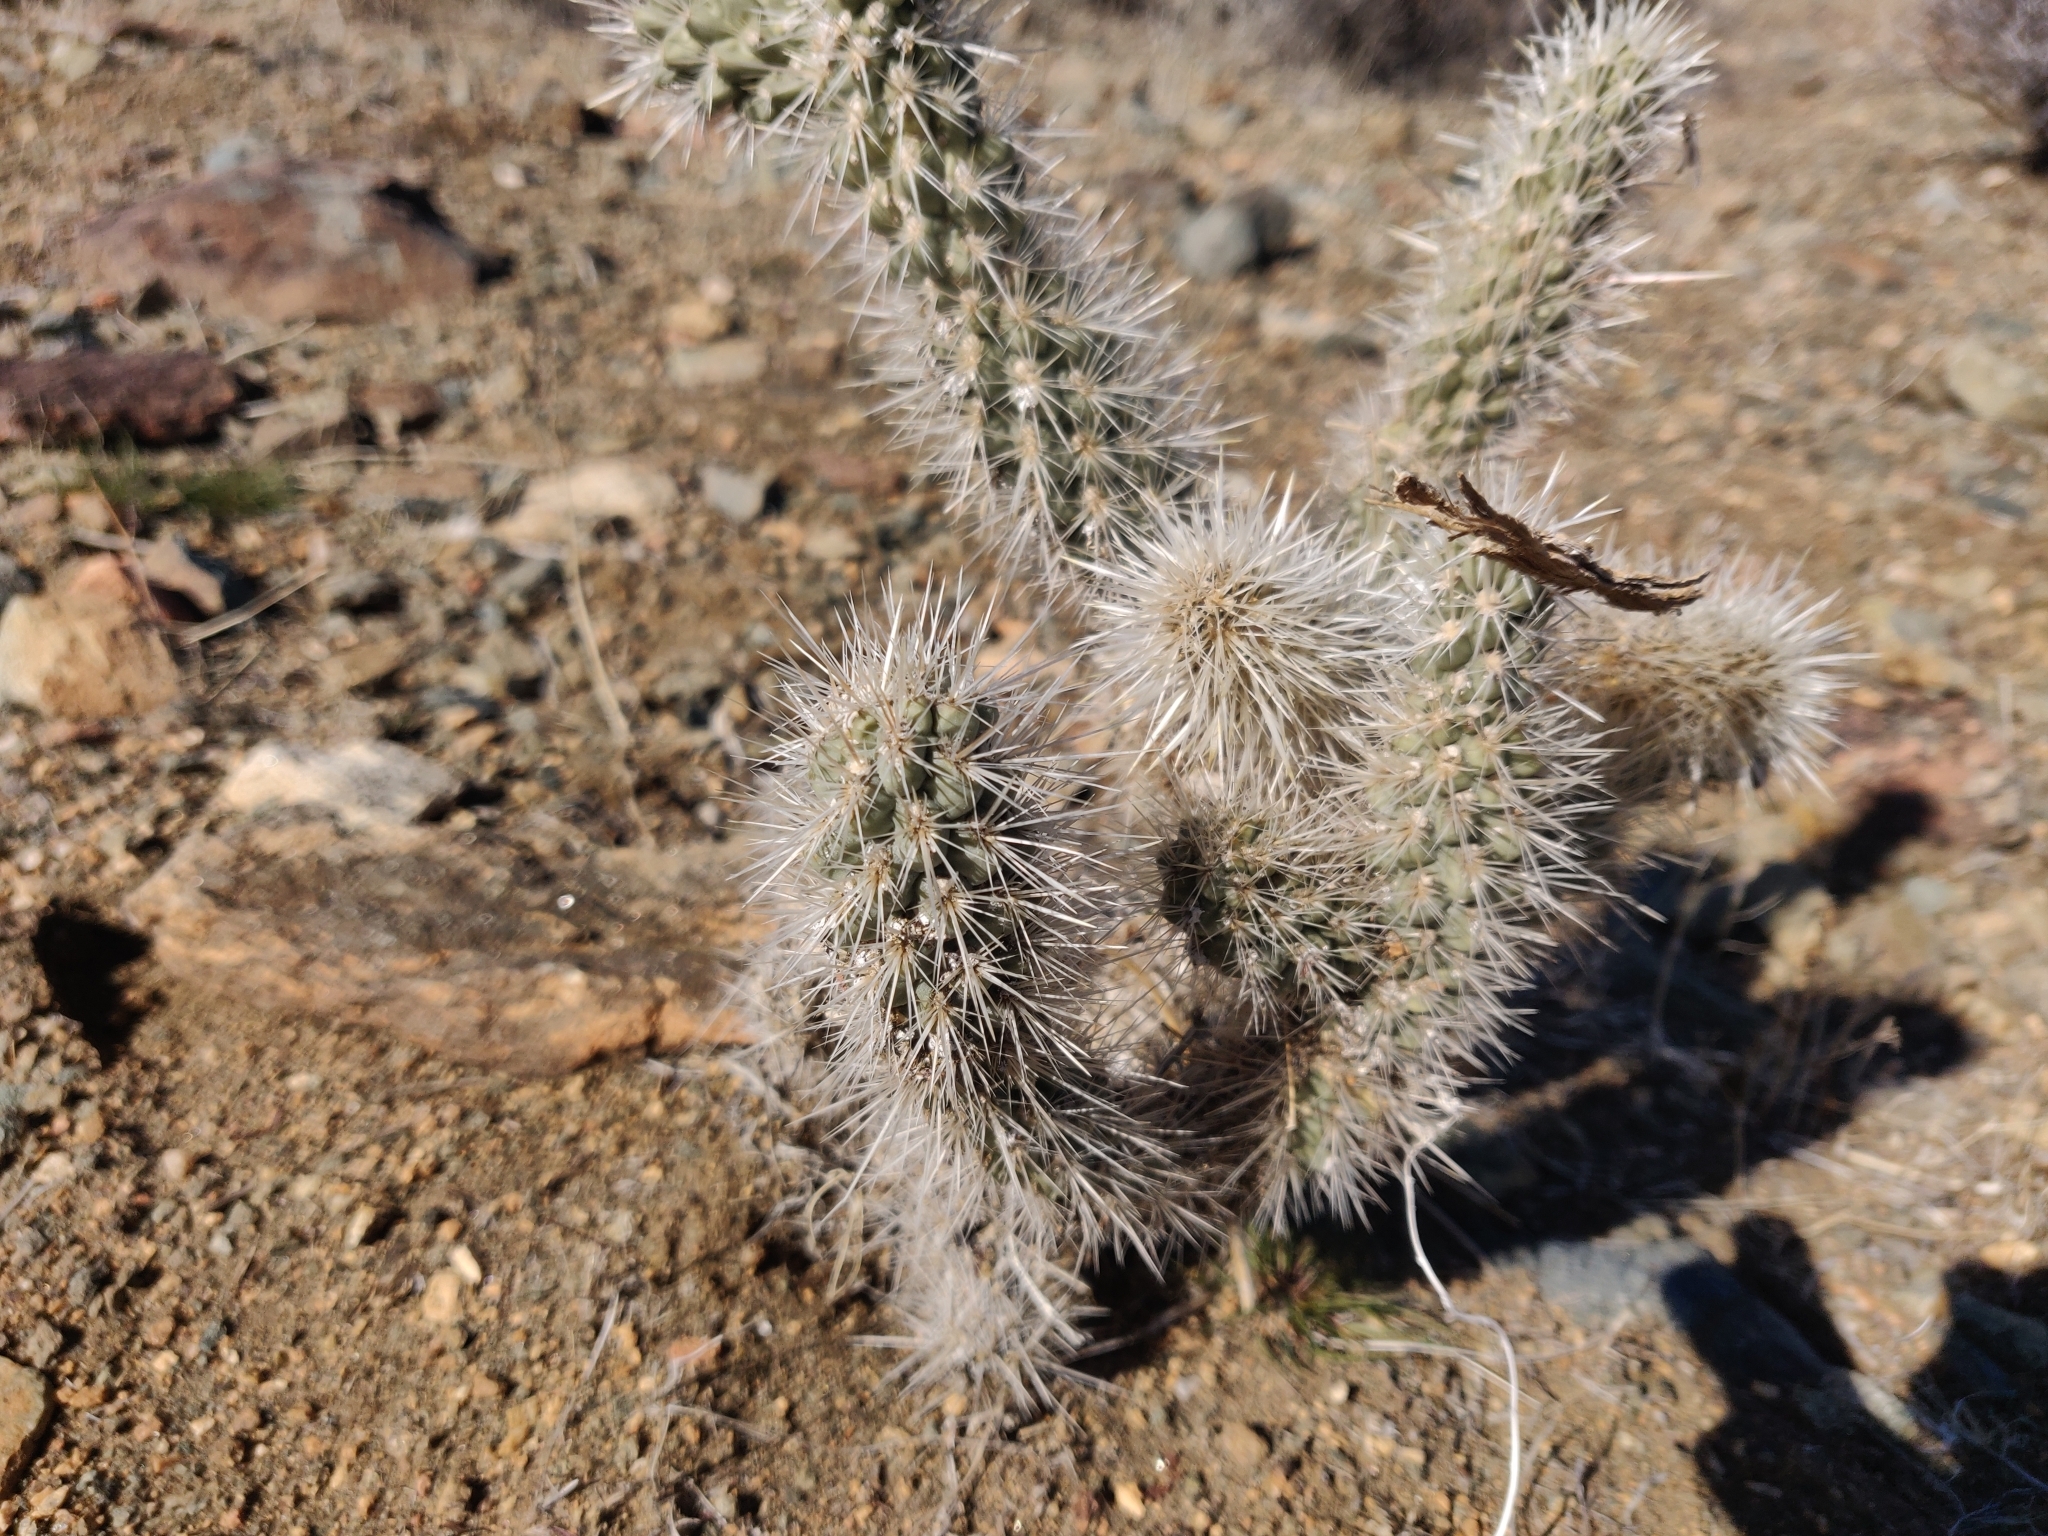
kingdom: Plantae
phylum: Tracheophyta
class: Magnoliopsida
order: Caryophyllales
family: Cactaceae
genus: Cylindropuntia
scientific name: Cylindropuntia echinocarpa
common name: Ground cholla
